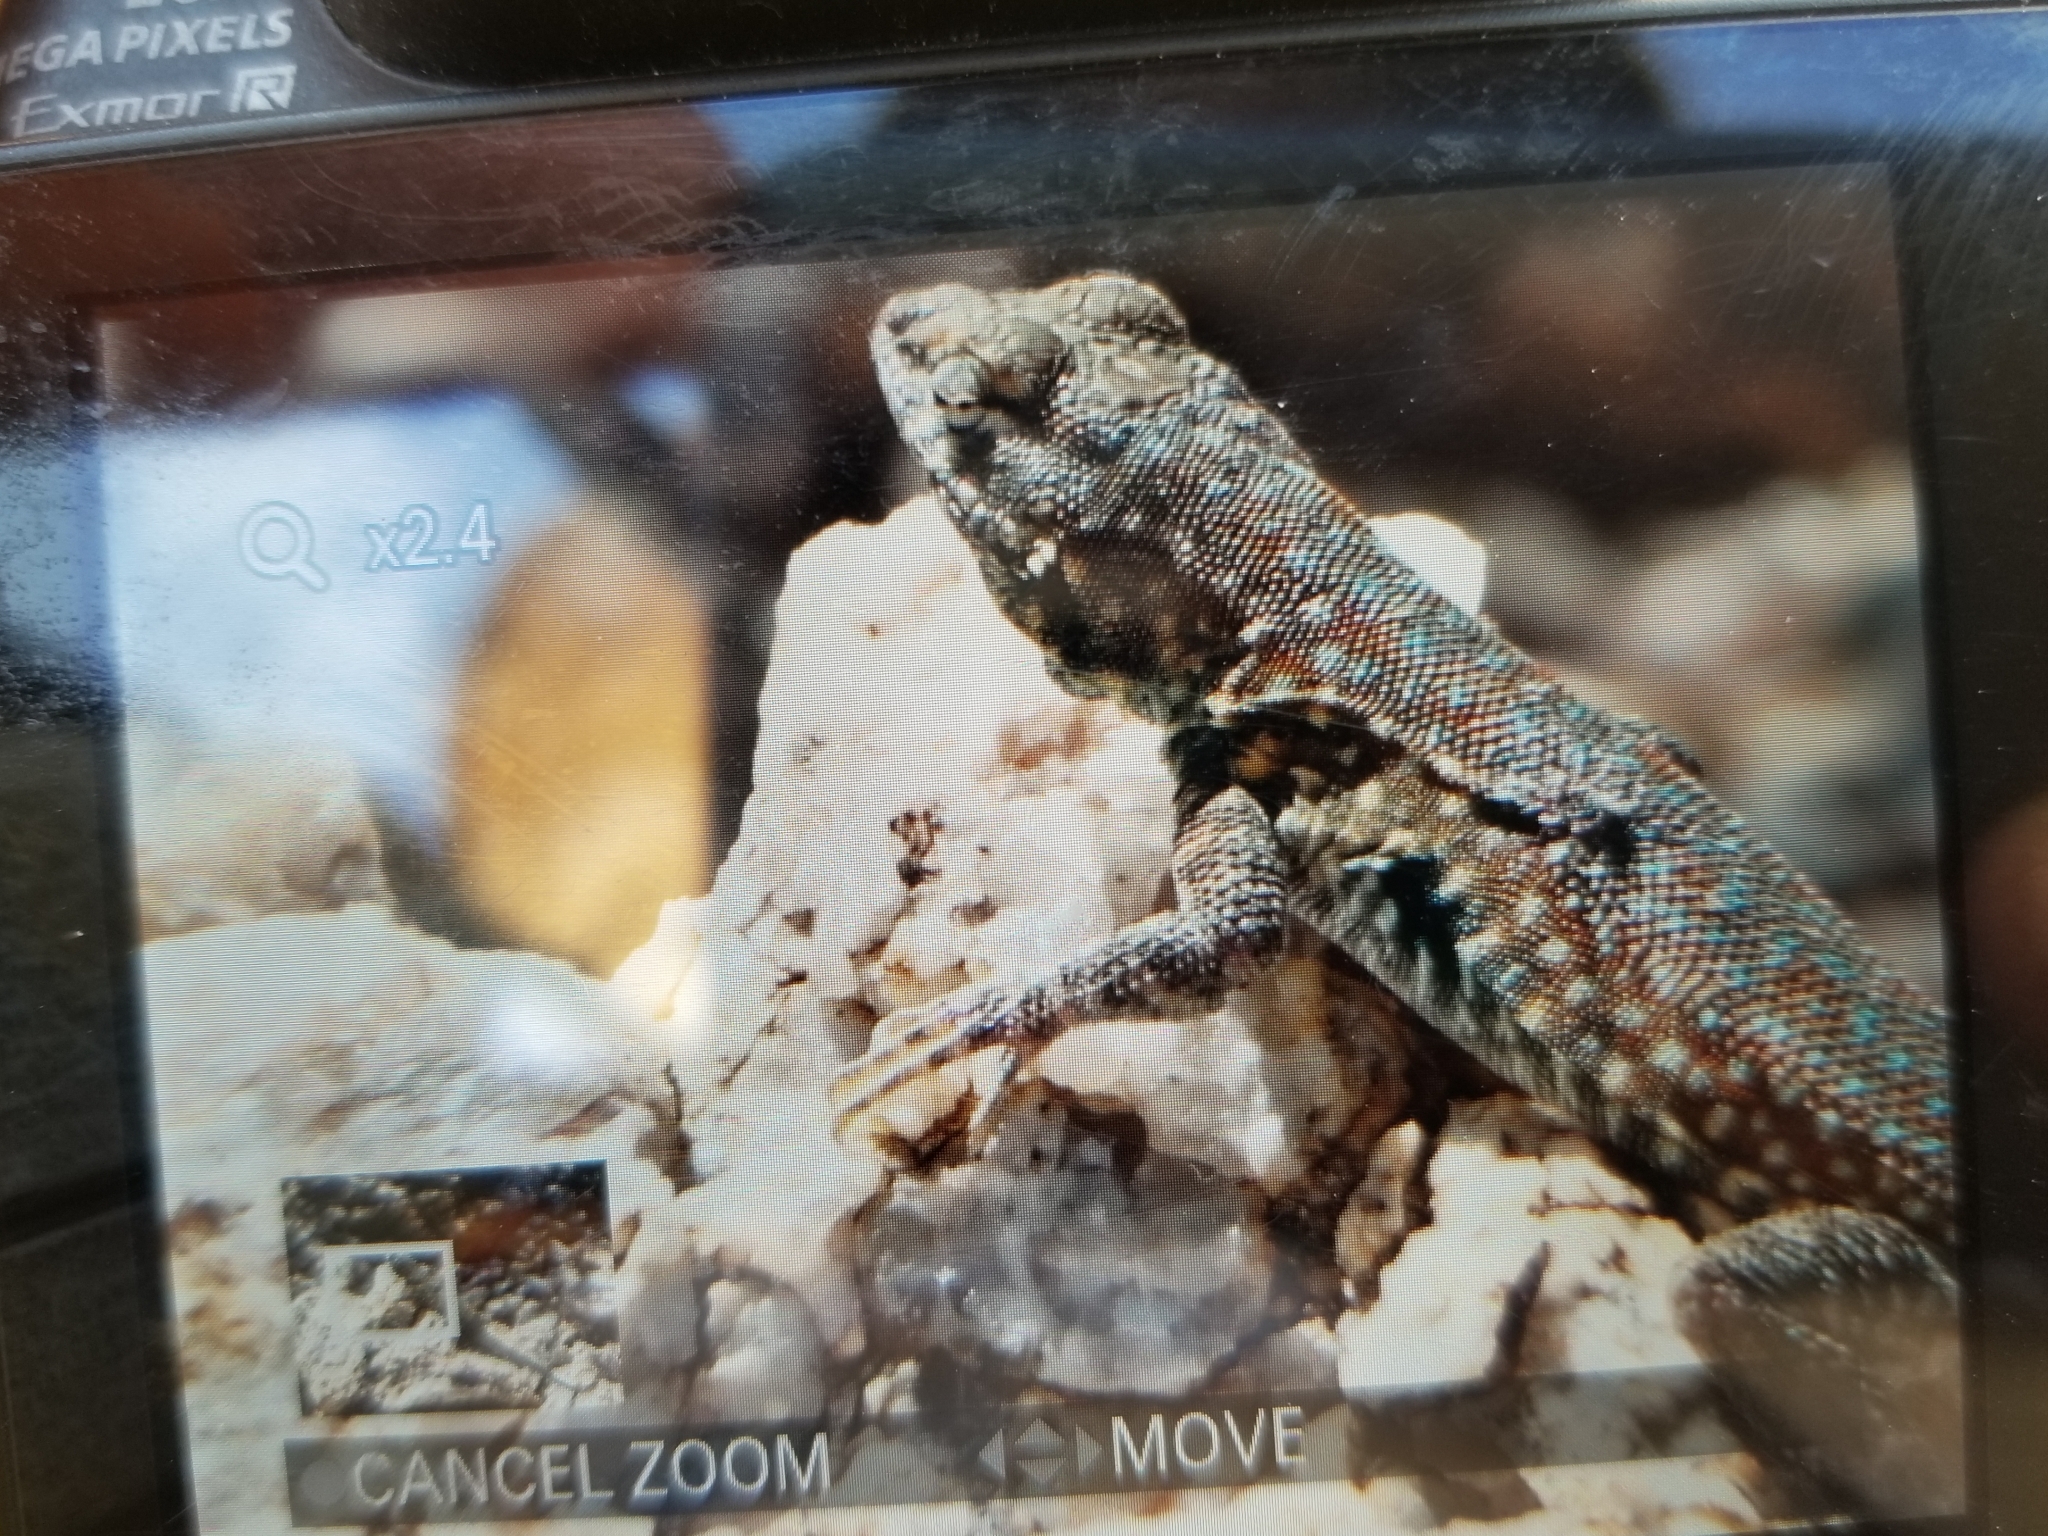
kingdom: Animalia
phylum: Chordata
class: Squamata
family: Phrynosomatidae
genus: Uta
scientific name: Uta stansburiana
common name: Side-blotched lizard
